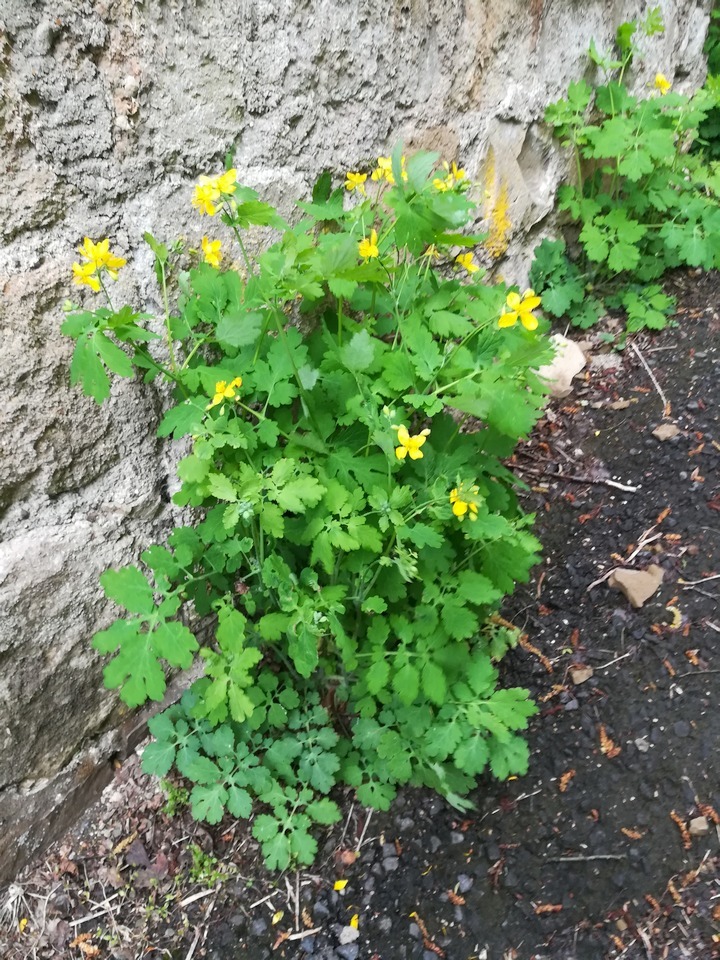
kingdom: Plantae
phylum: Tracheophyta
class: Magnoliopsida
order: Ranunculales
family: Papaveraceae
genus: Chelidonium
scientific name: Chelidonium majus
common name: Greater celandine
